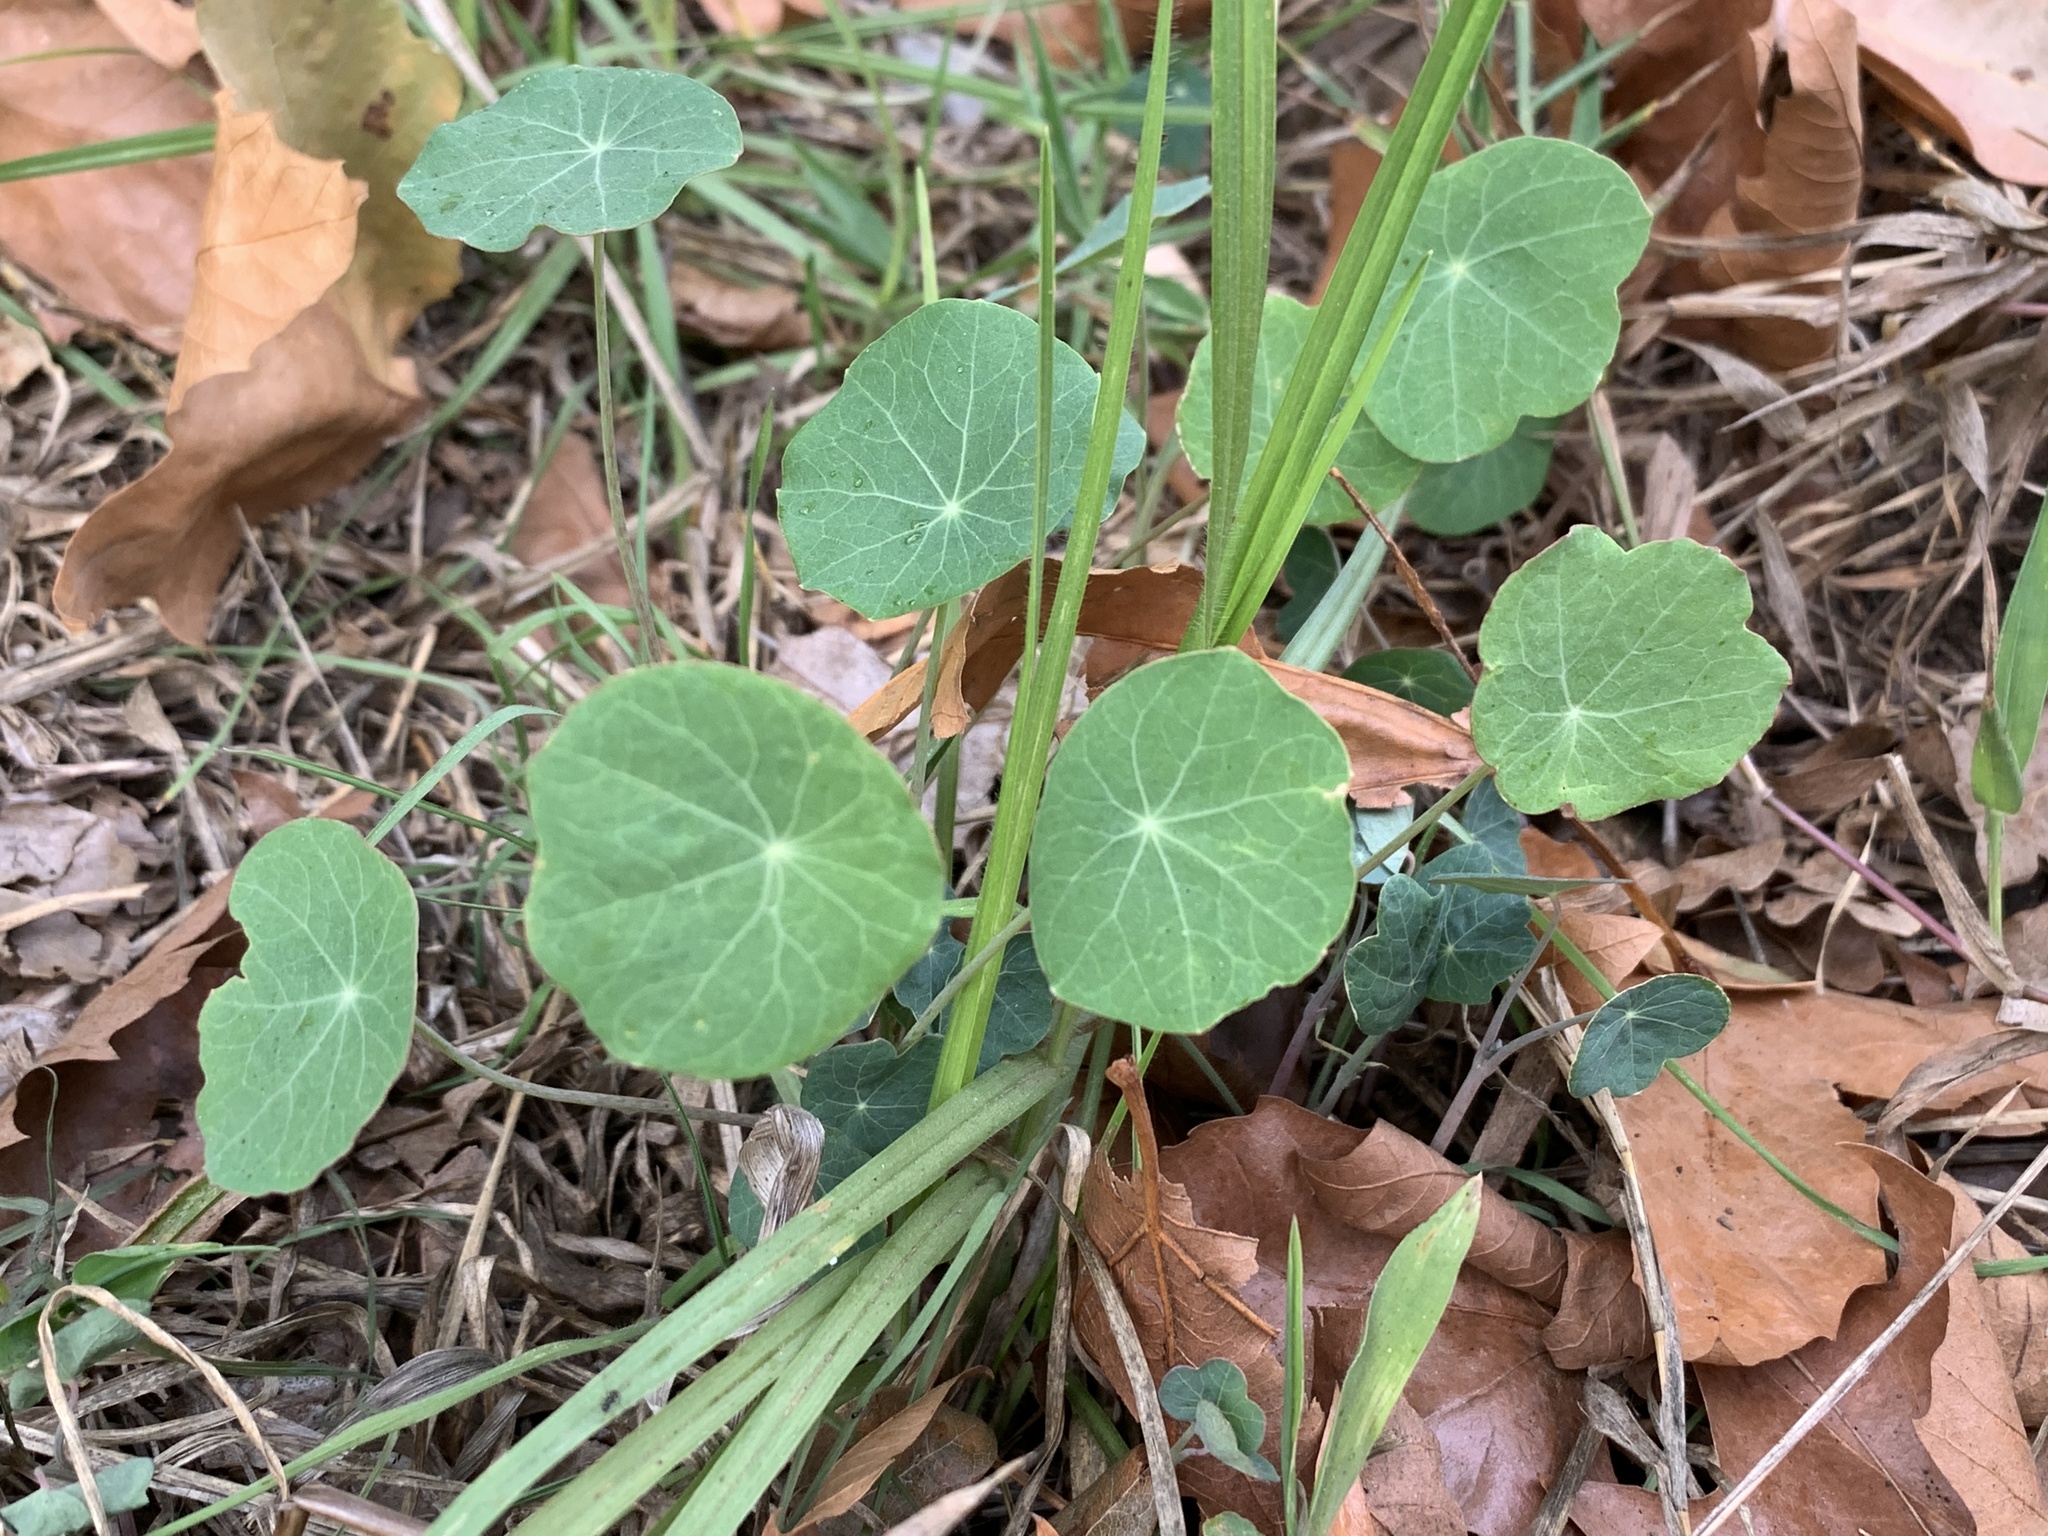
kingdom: Plantae
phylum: Tracheophyta
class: Magnoliopsida
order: Brassicales
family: Tropaeolaceae
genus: Tropaeolum
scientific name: Tropaeolum majus
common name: Nasturtium
